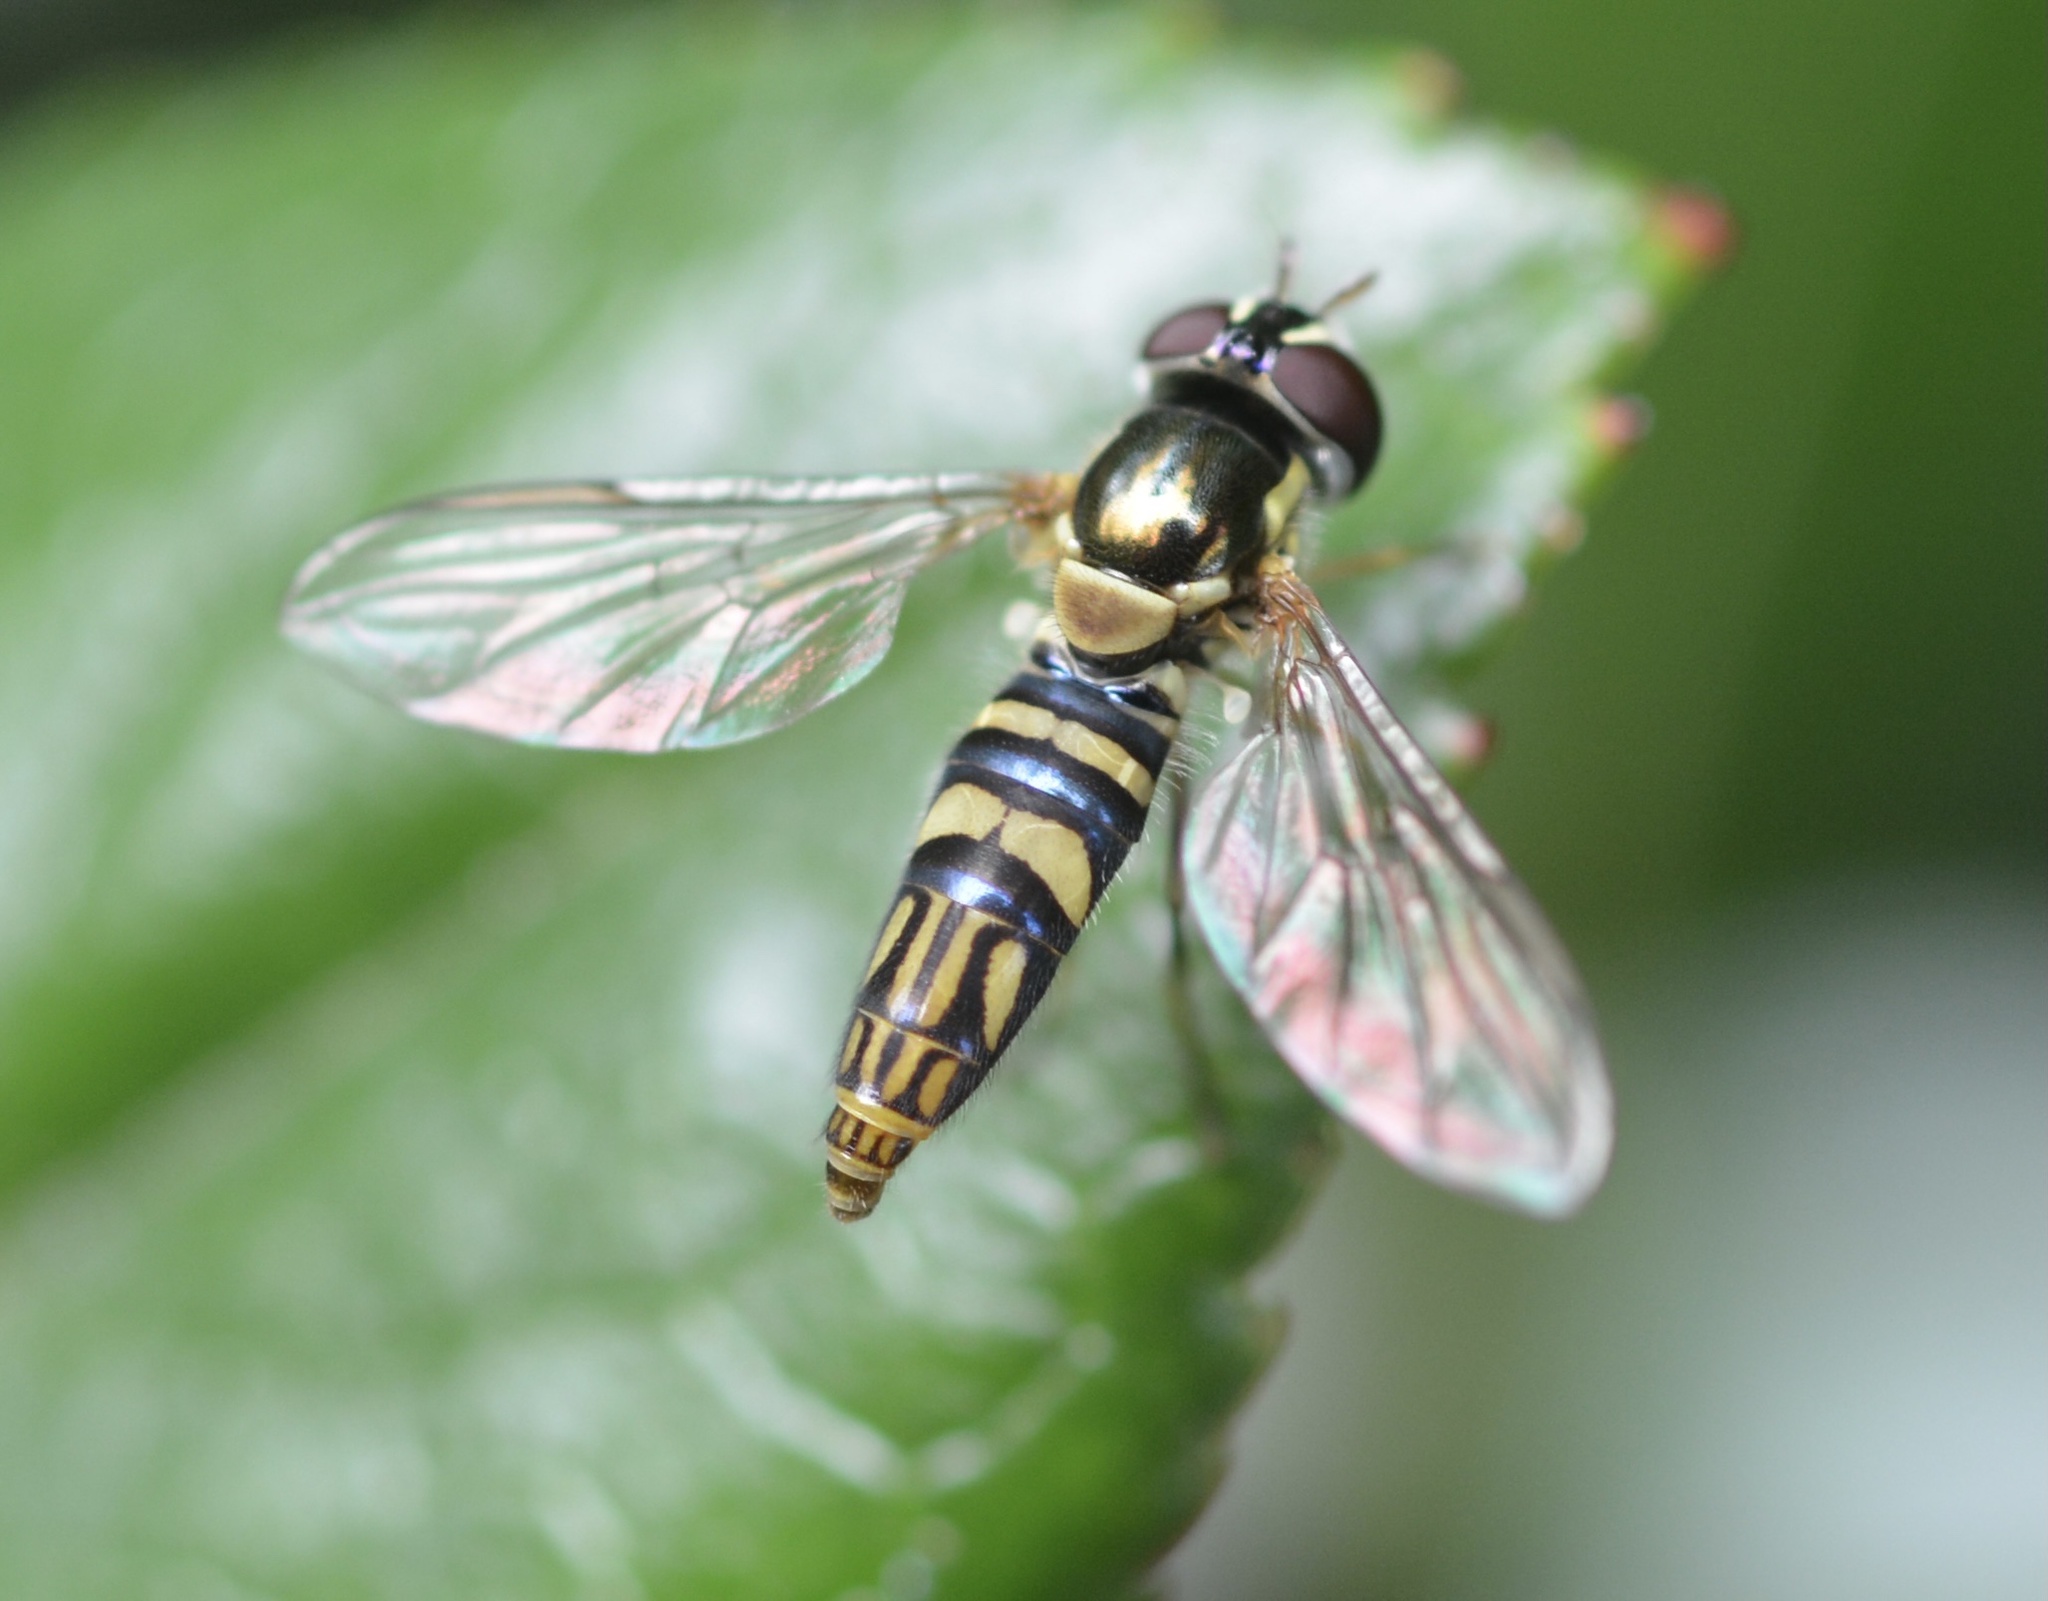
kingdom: Animalia
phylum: Arthropoda
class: Insecta
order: Diptera
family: Syrphidae
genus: Allograpta
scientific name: Allograpta obliqua
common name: Common oblique syrphid
